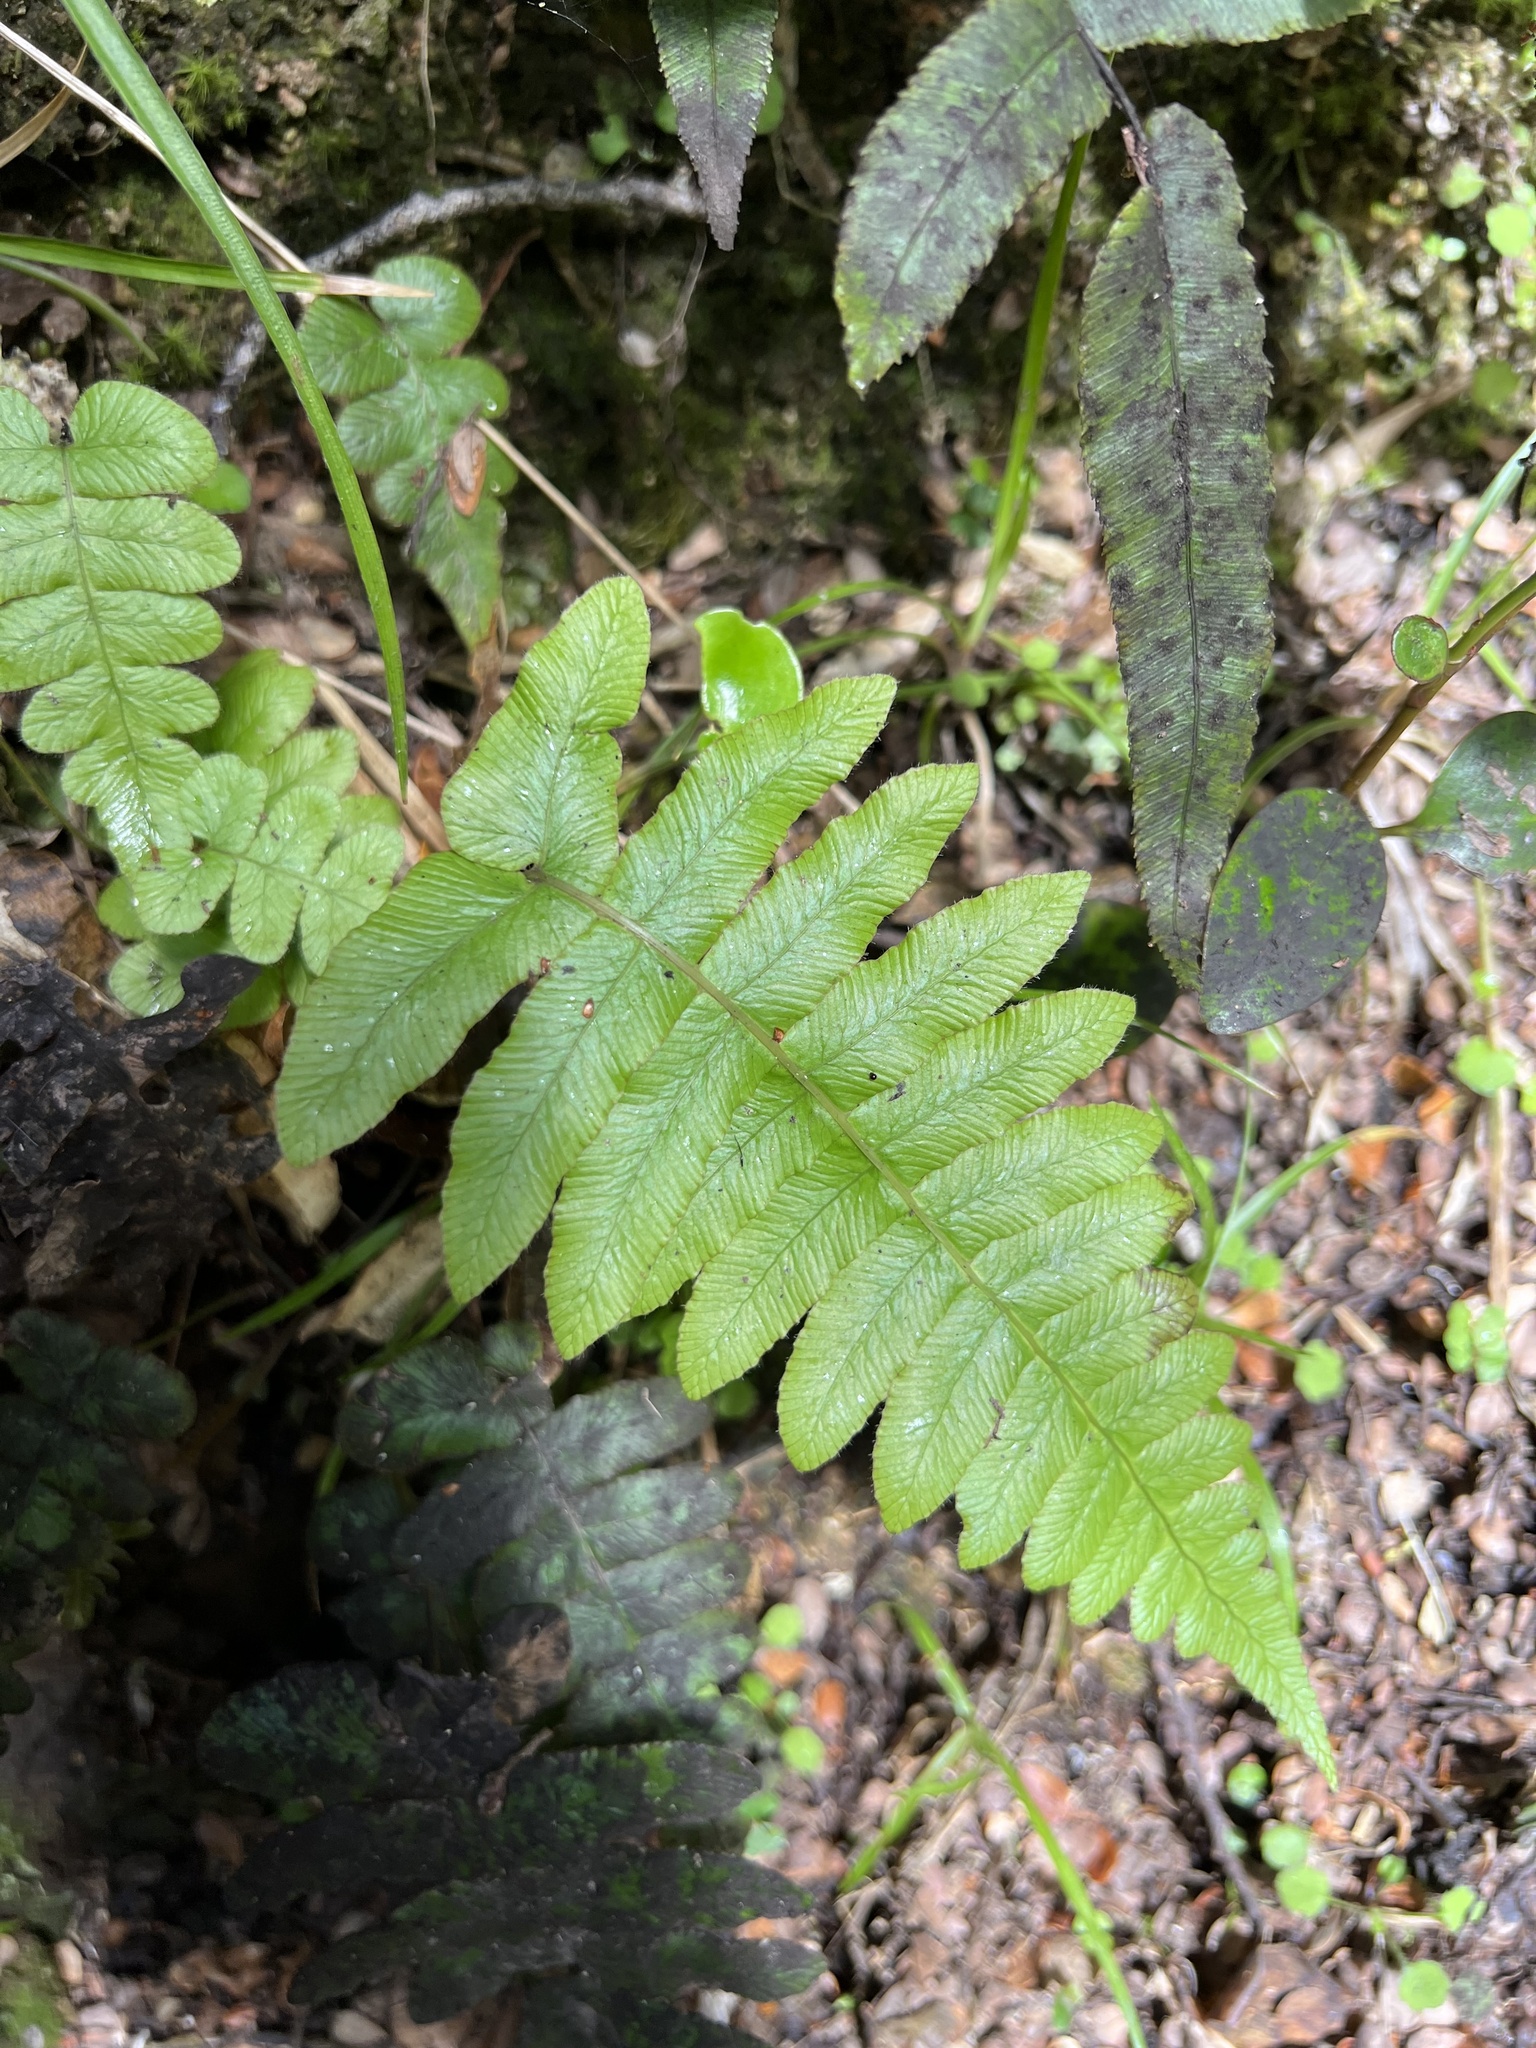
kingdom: Plantae
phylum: Tracheophyta
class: Polypodiopsida
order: Polypodiales
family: Blechnaceae
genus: Cranfillia
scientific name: Cranfillia deltoides
